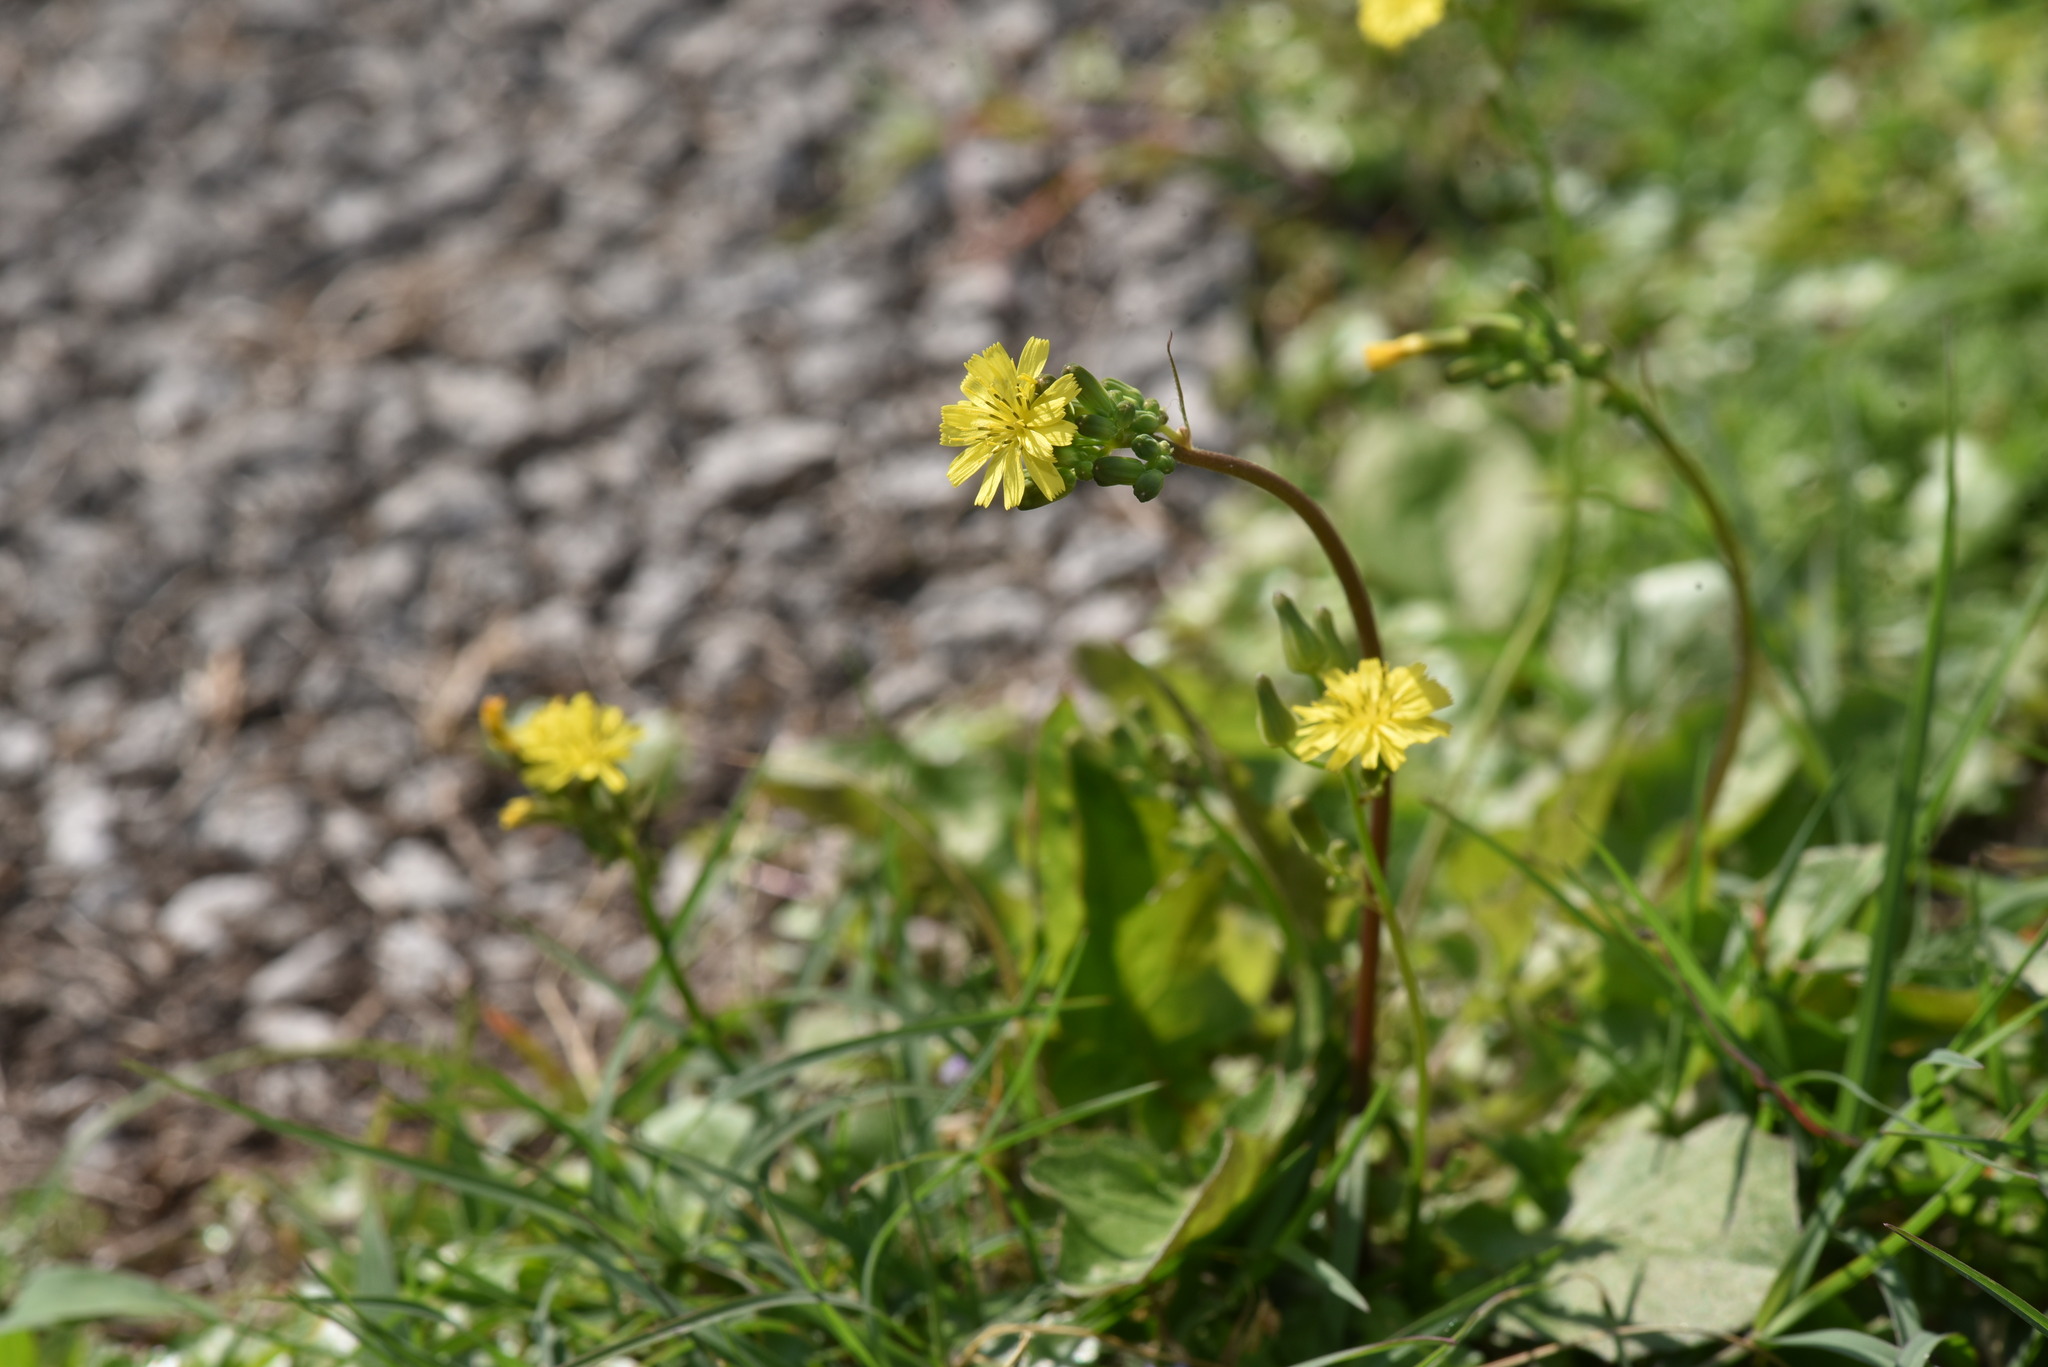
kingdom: Plantae
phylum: Tracheophyta
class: Magnoliopsida
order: Asterales
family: Asteraceae
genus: Youngia
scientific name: Youngia japonica
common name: Oriental false hawksbeard
